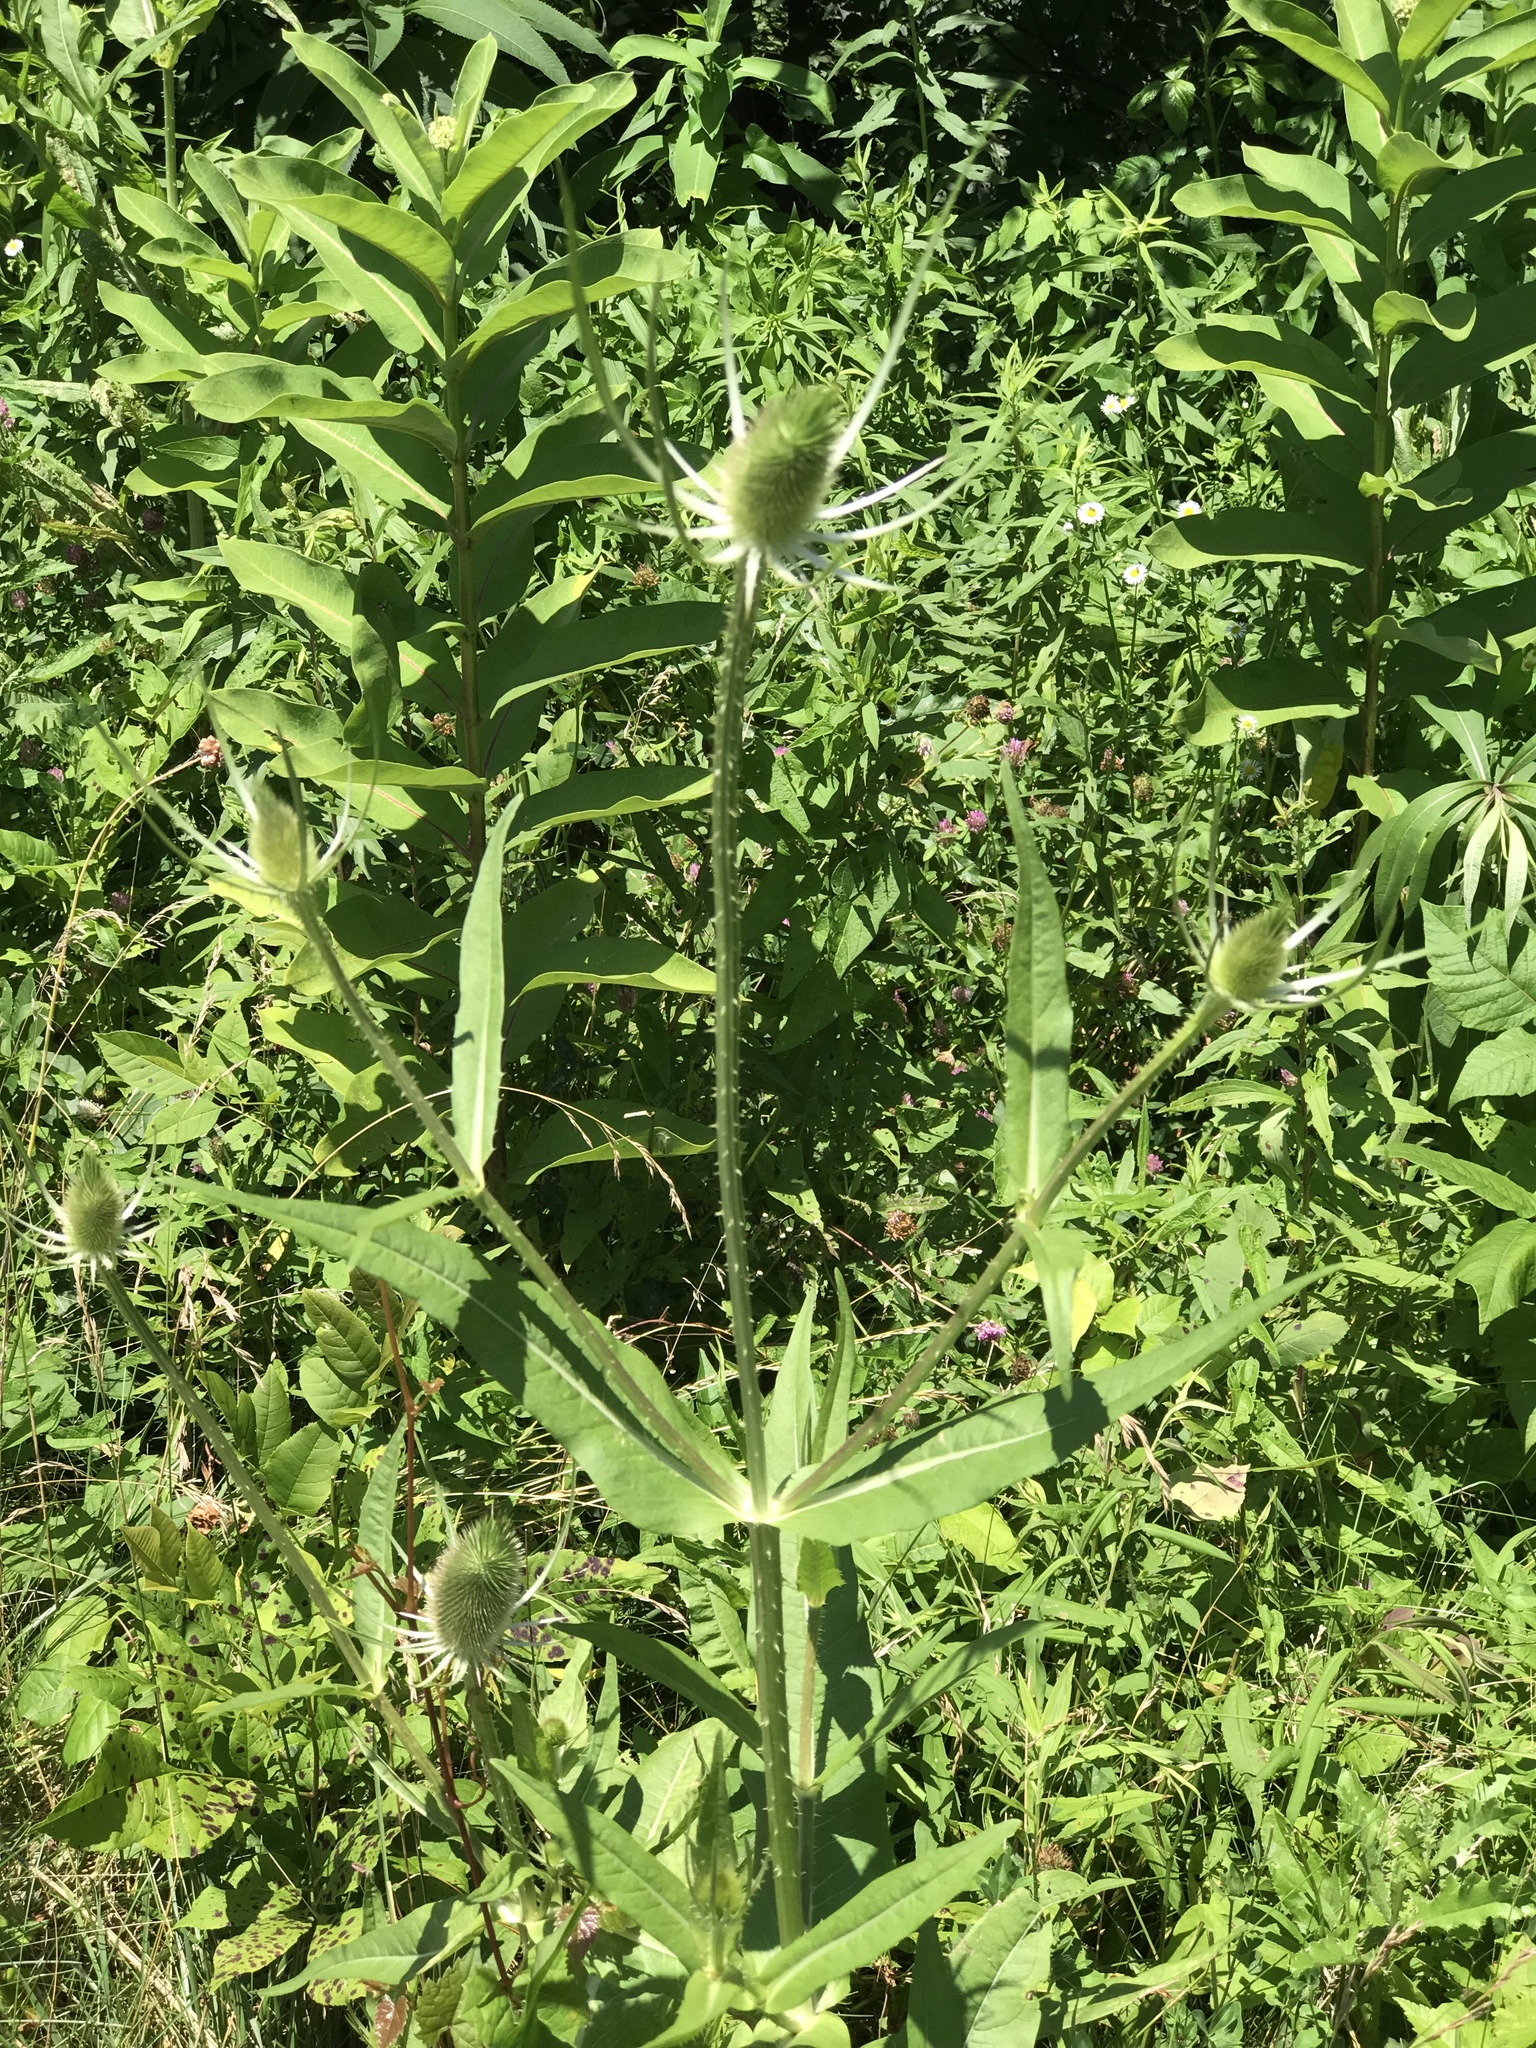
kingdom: Plantae
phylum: Tracheophyta
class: Magnoliopsida
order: Dipsacales
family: Caprifoliaceae
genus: Dipsacus
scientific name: Dipsacus fullonum
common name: Teasel
